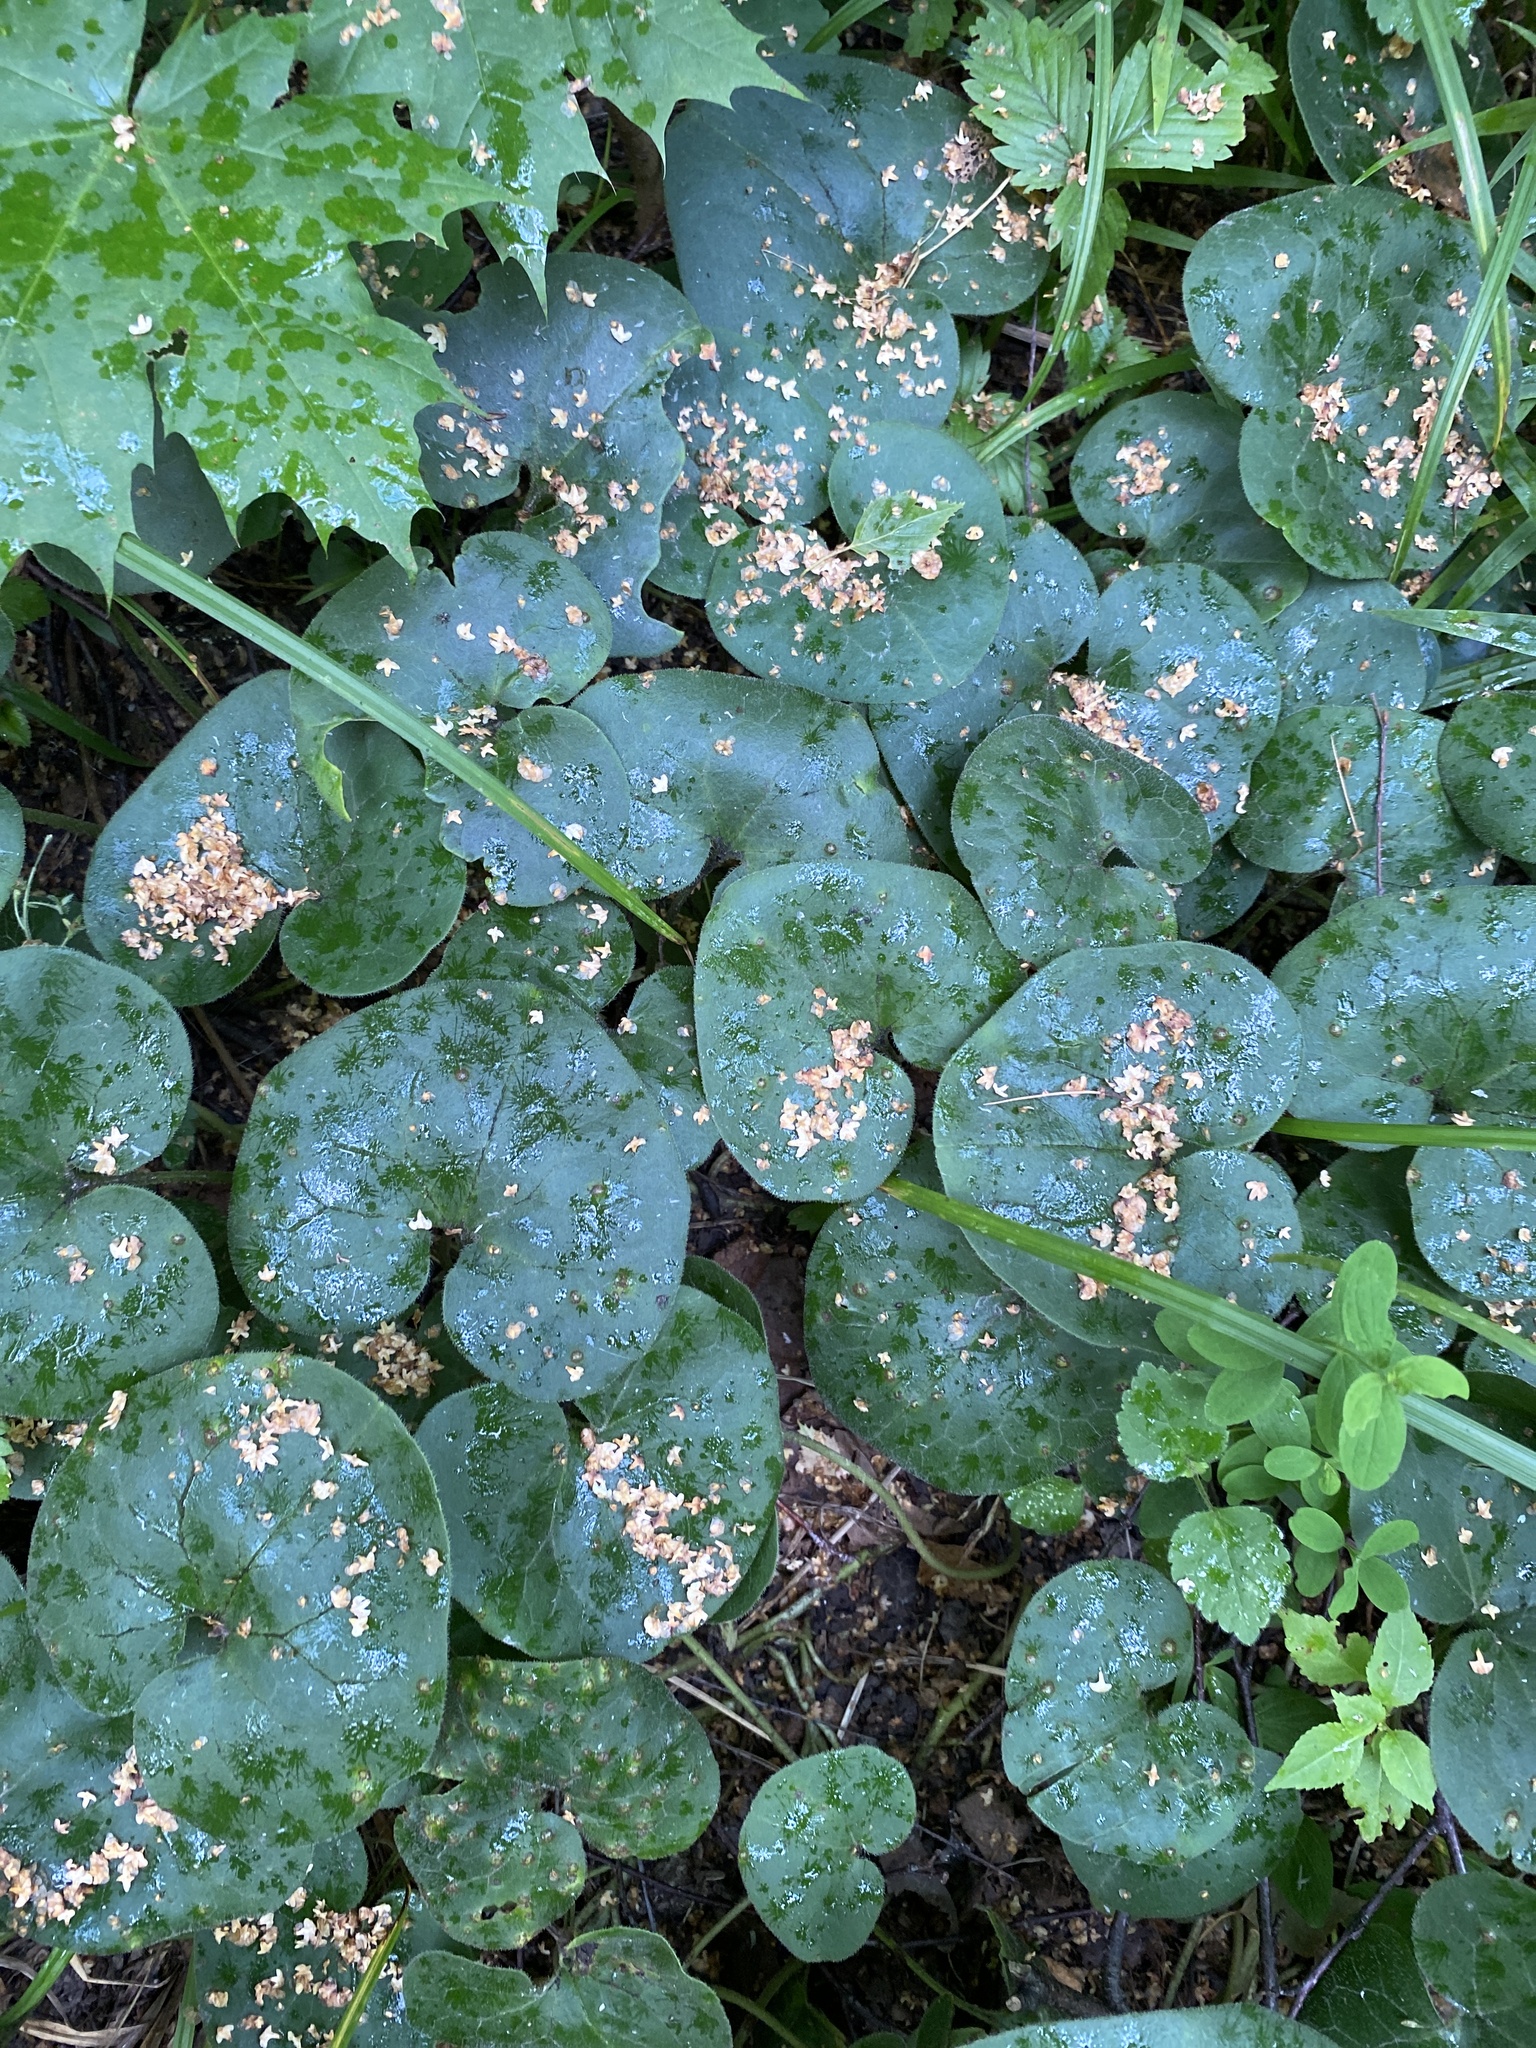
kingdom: Plantae
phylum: Tracheophyta
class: Magnoliopsida
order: Piperales
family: Aristolochiaceae
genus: Asarum
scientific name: Asarum europaeum
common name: Asarabacca
